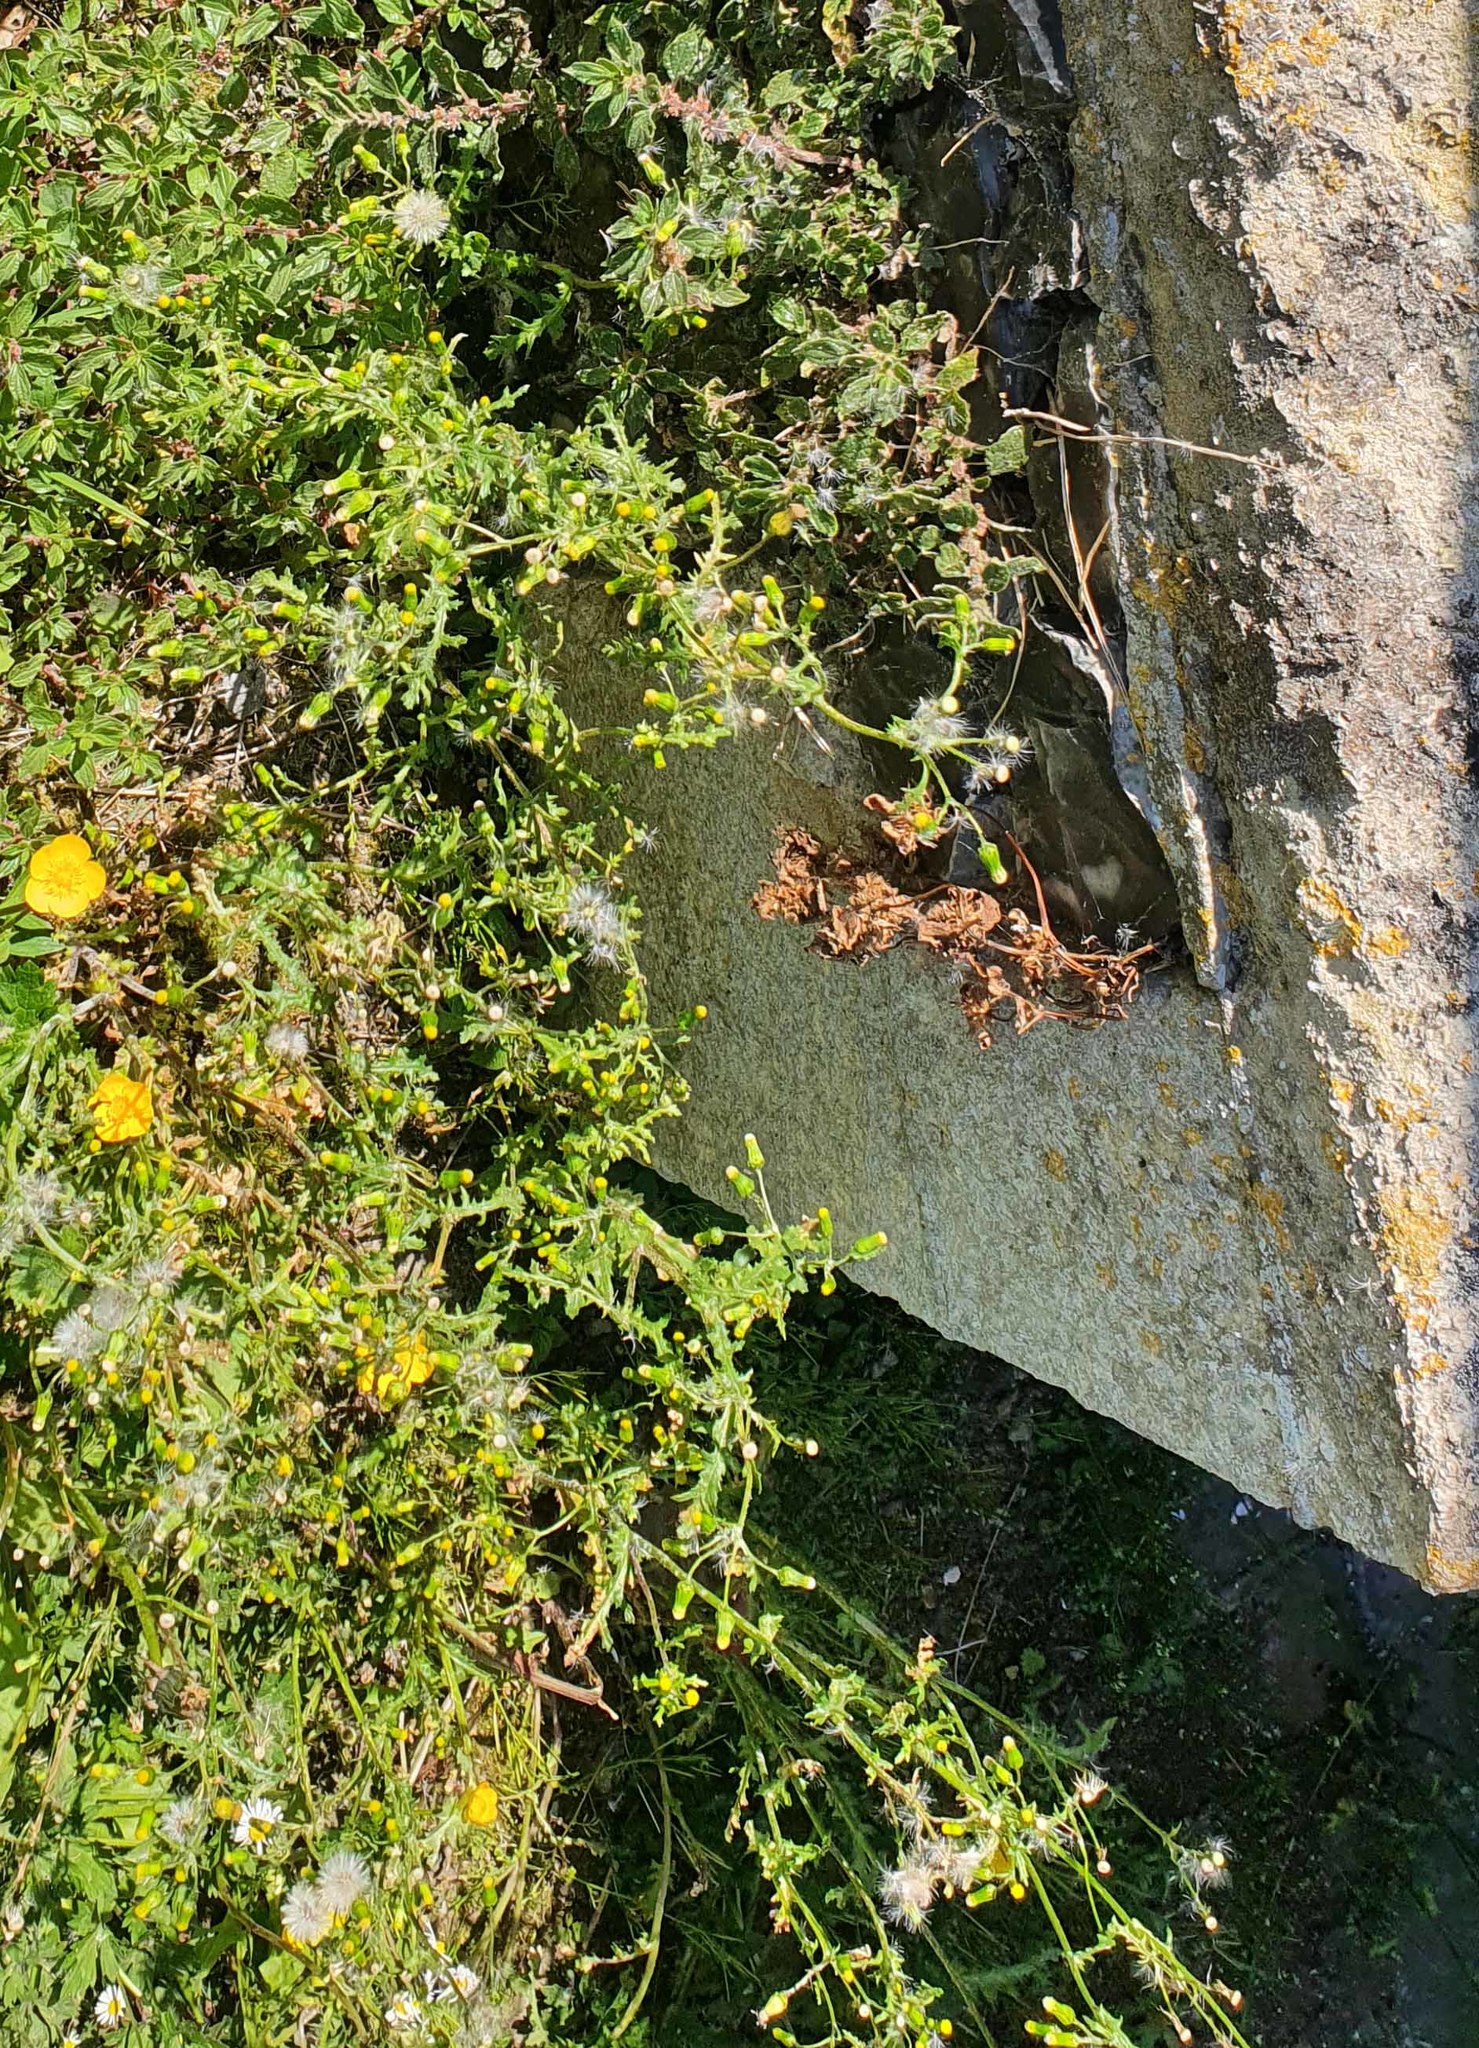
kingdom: Plantae
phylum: Tracheophyta
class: Magnoliopsida
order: Asterales
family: Asteraceae
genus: Senecio
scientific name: Senecio vulgaris
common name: Old-man-in-the-spring
